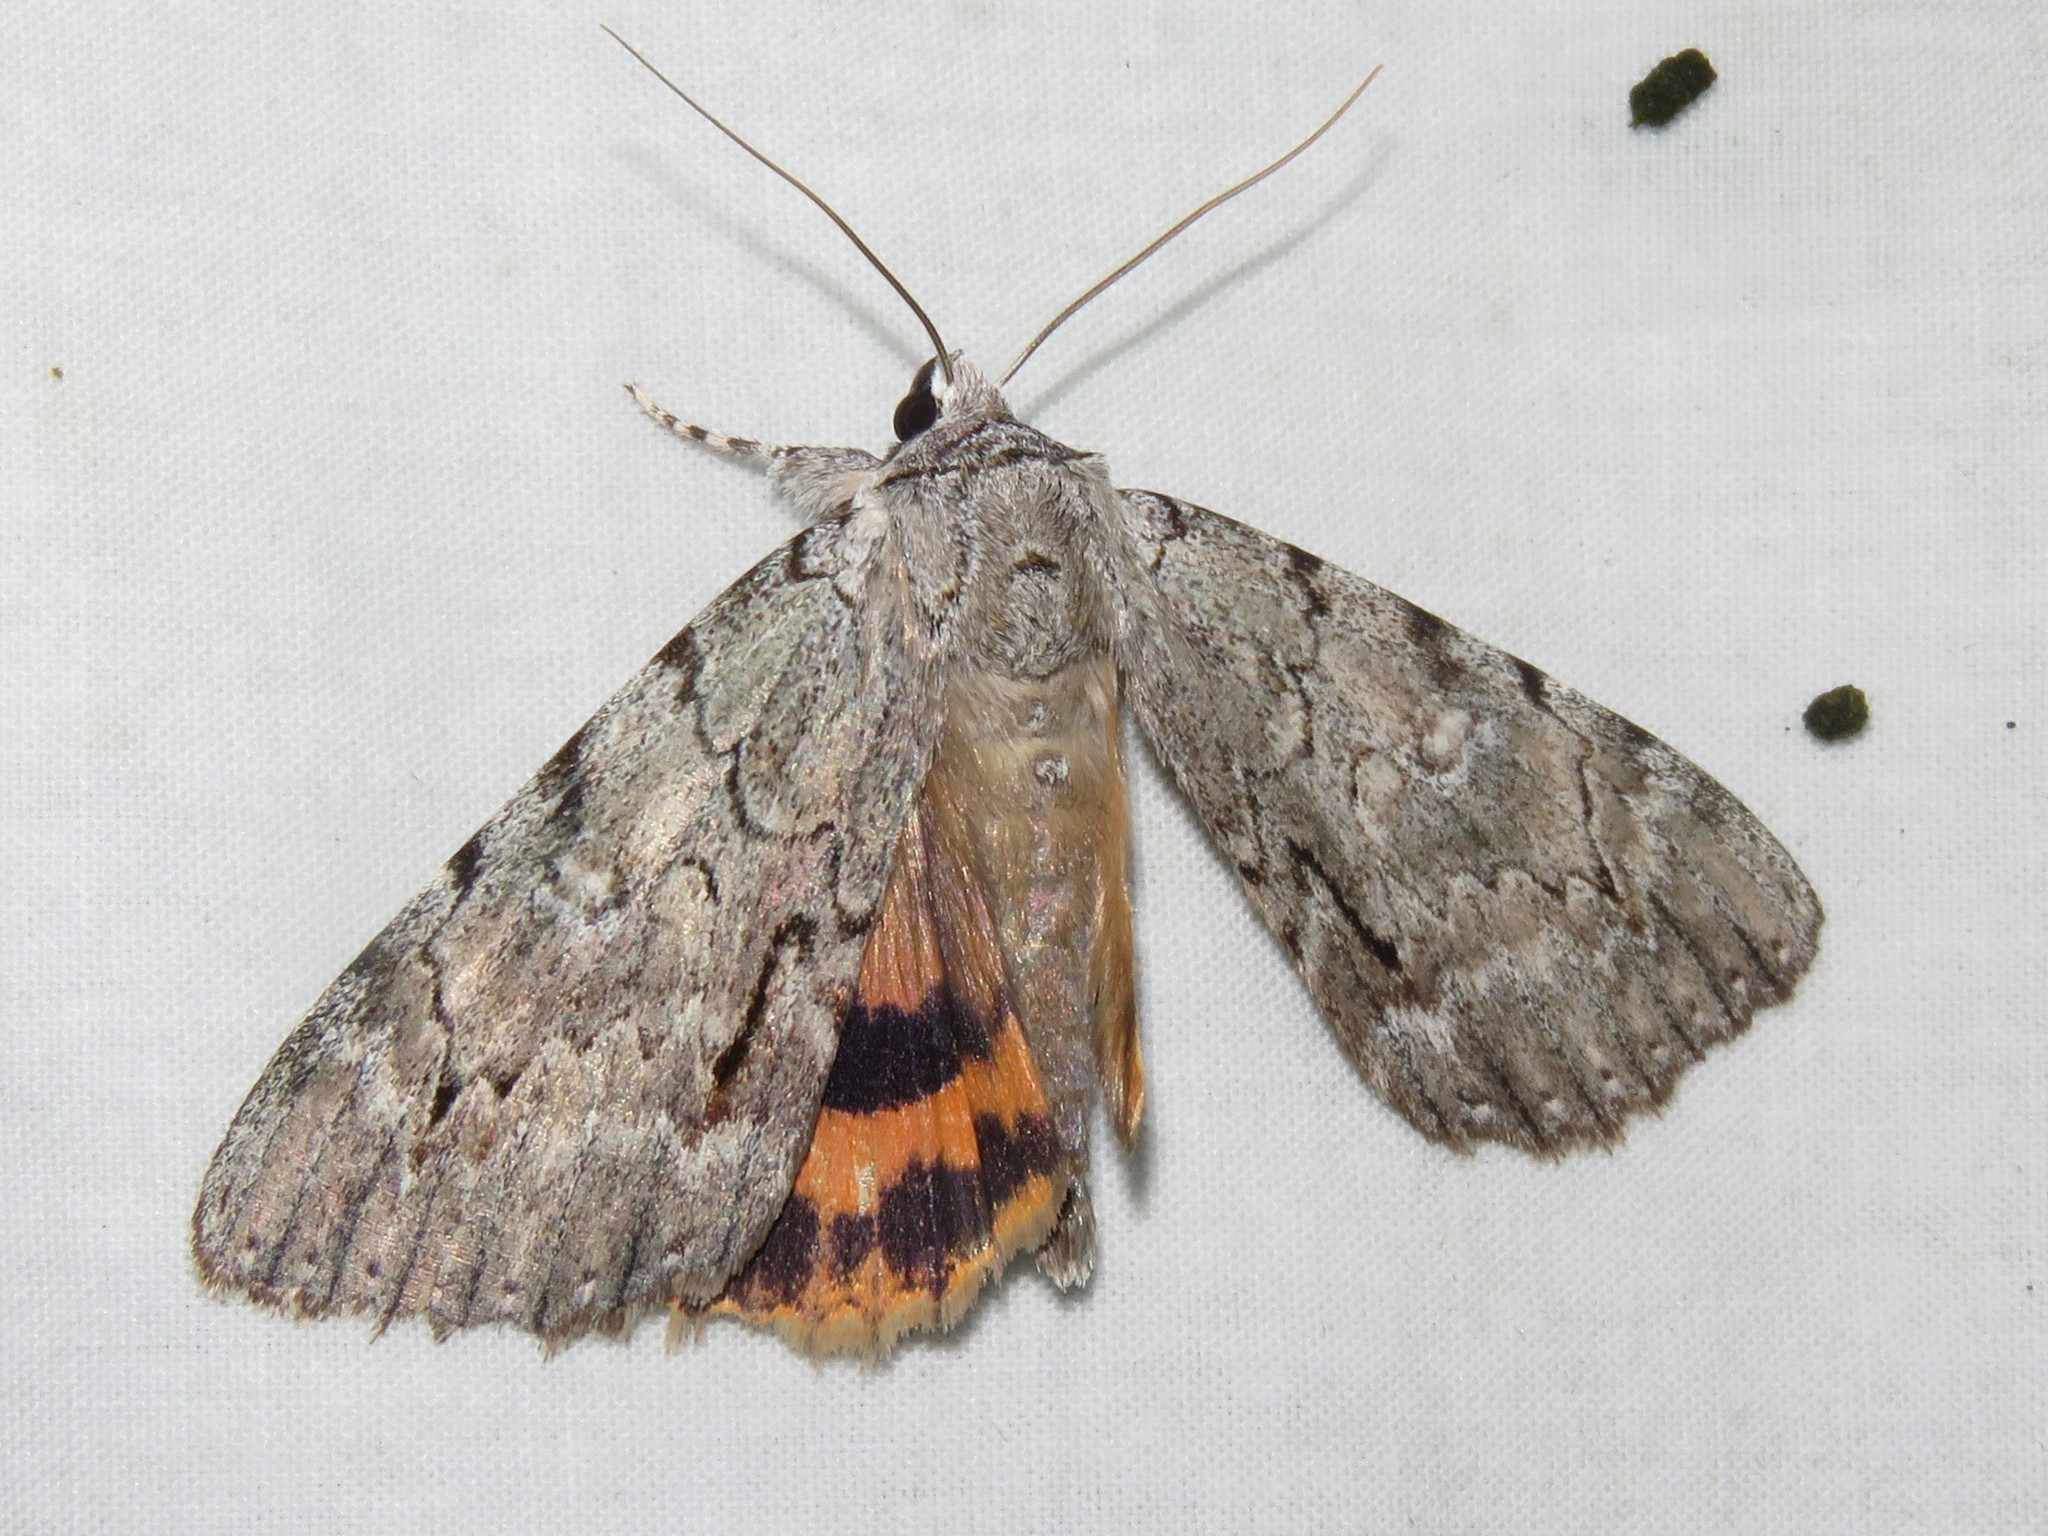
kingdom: Animalia
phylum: Arthropoda
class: Insecta
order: Lepidoptera
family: Erebidae
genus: Catocala
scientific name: Catocala habilis
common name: Habilis underwing
